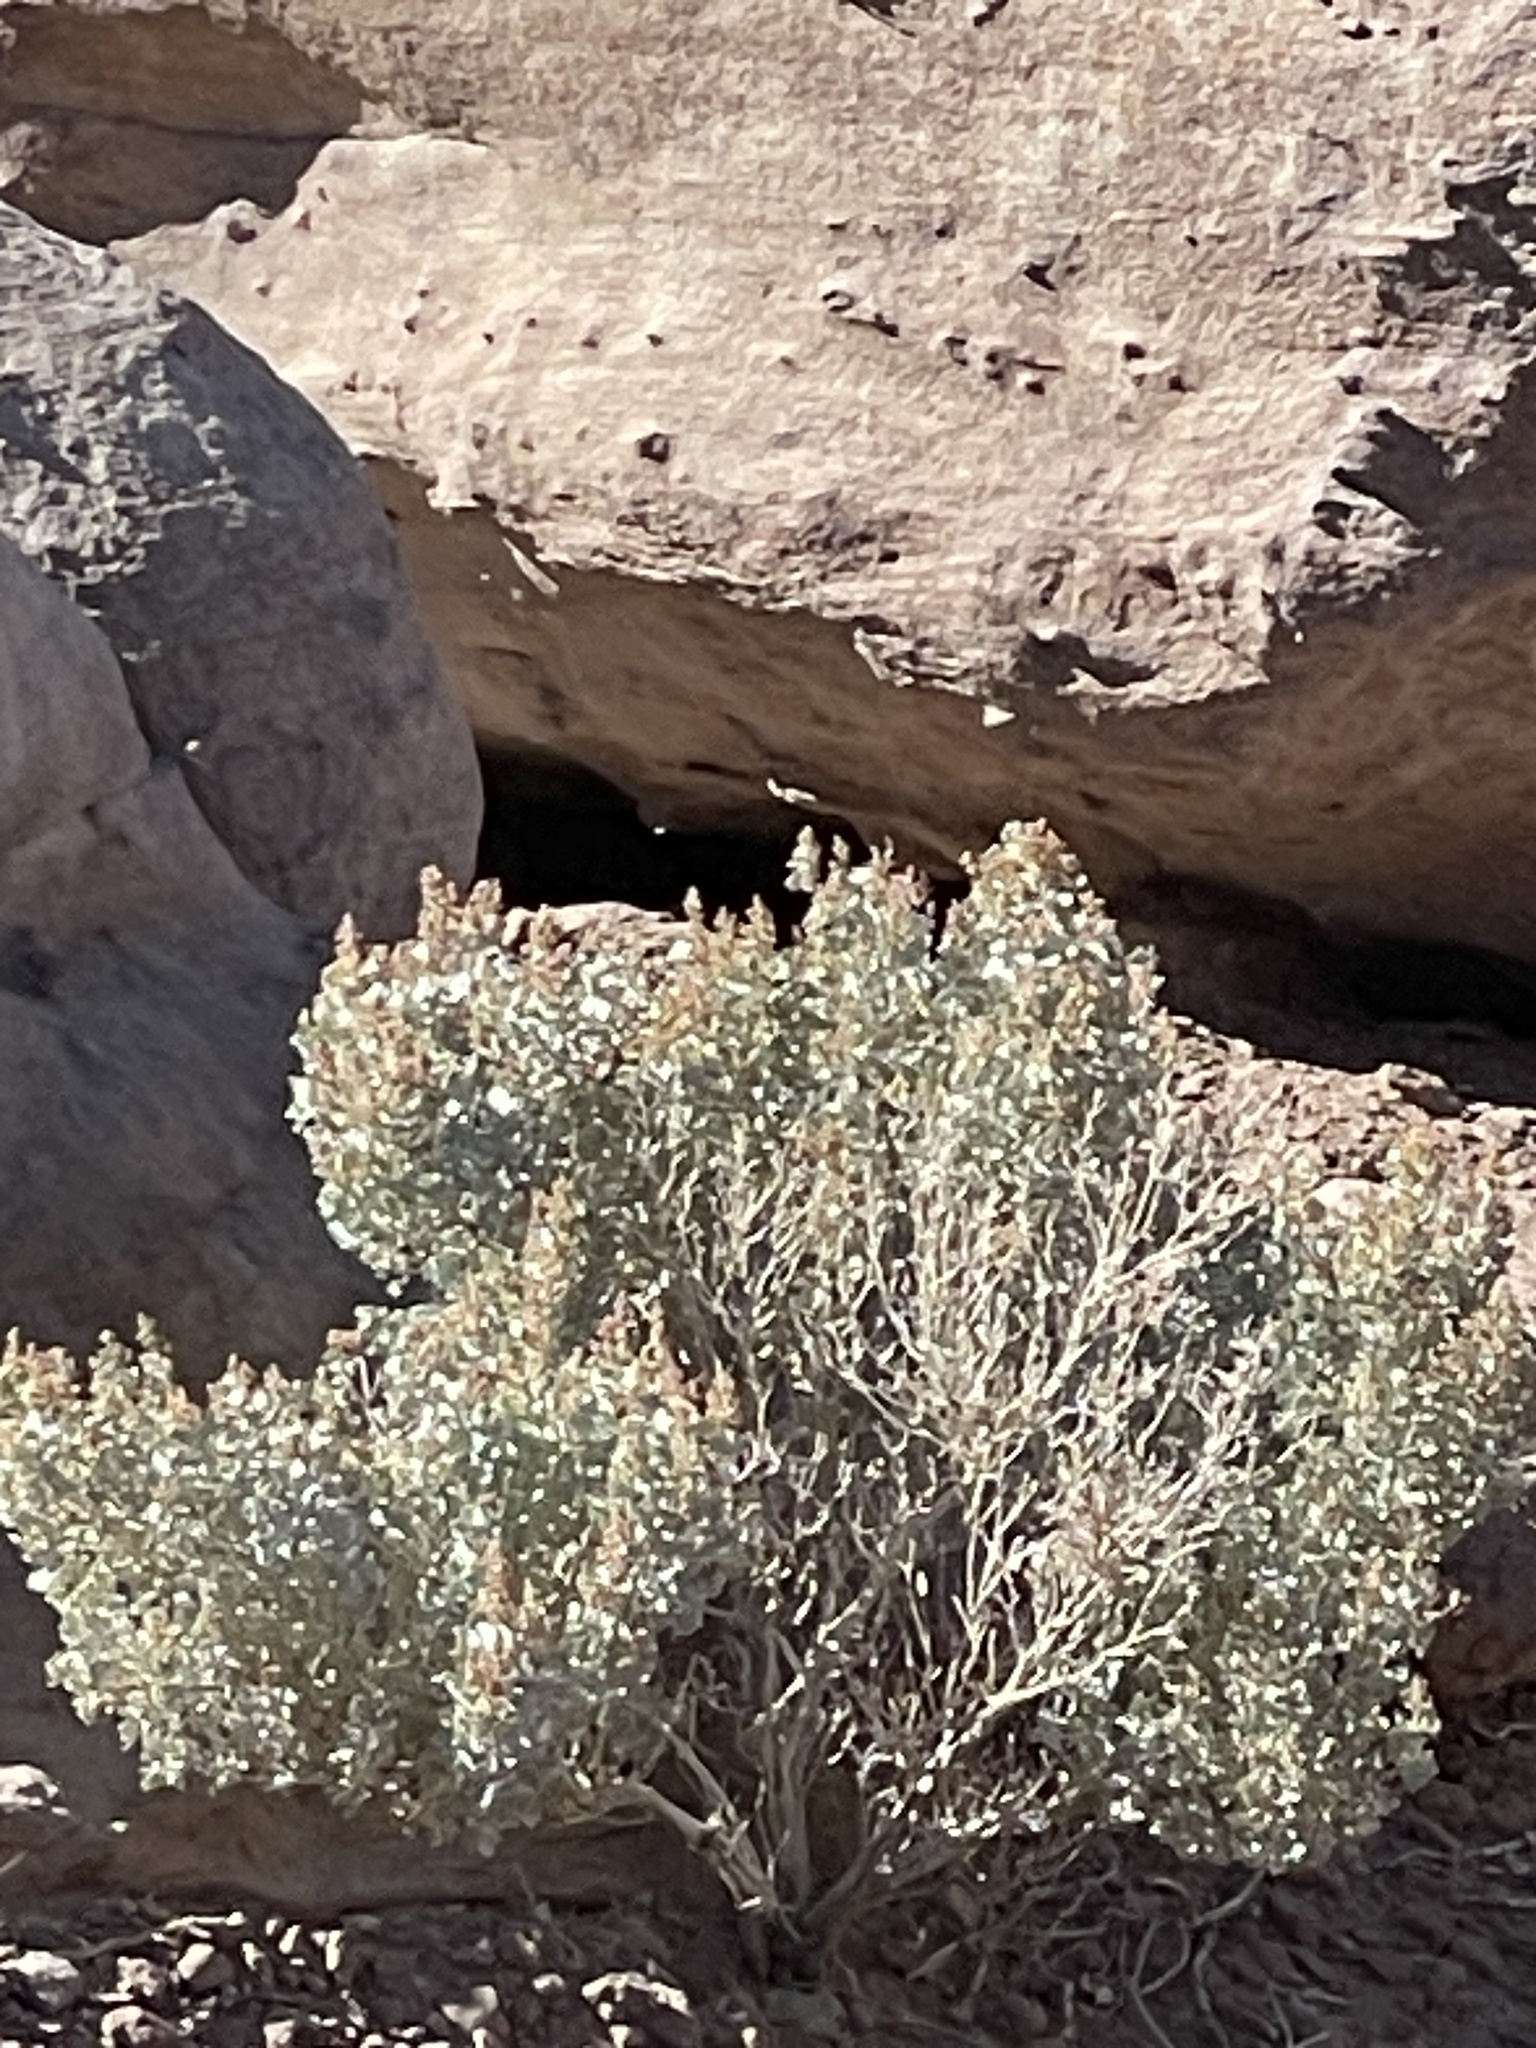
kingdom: Plantae
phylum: Tracheophyta
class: Magnoliopsida
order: Caryophyllales
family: Amaranthaceae
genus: Atriplex
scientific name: Atriplex hymenelytra
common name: Desert-holly
